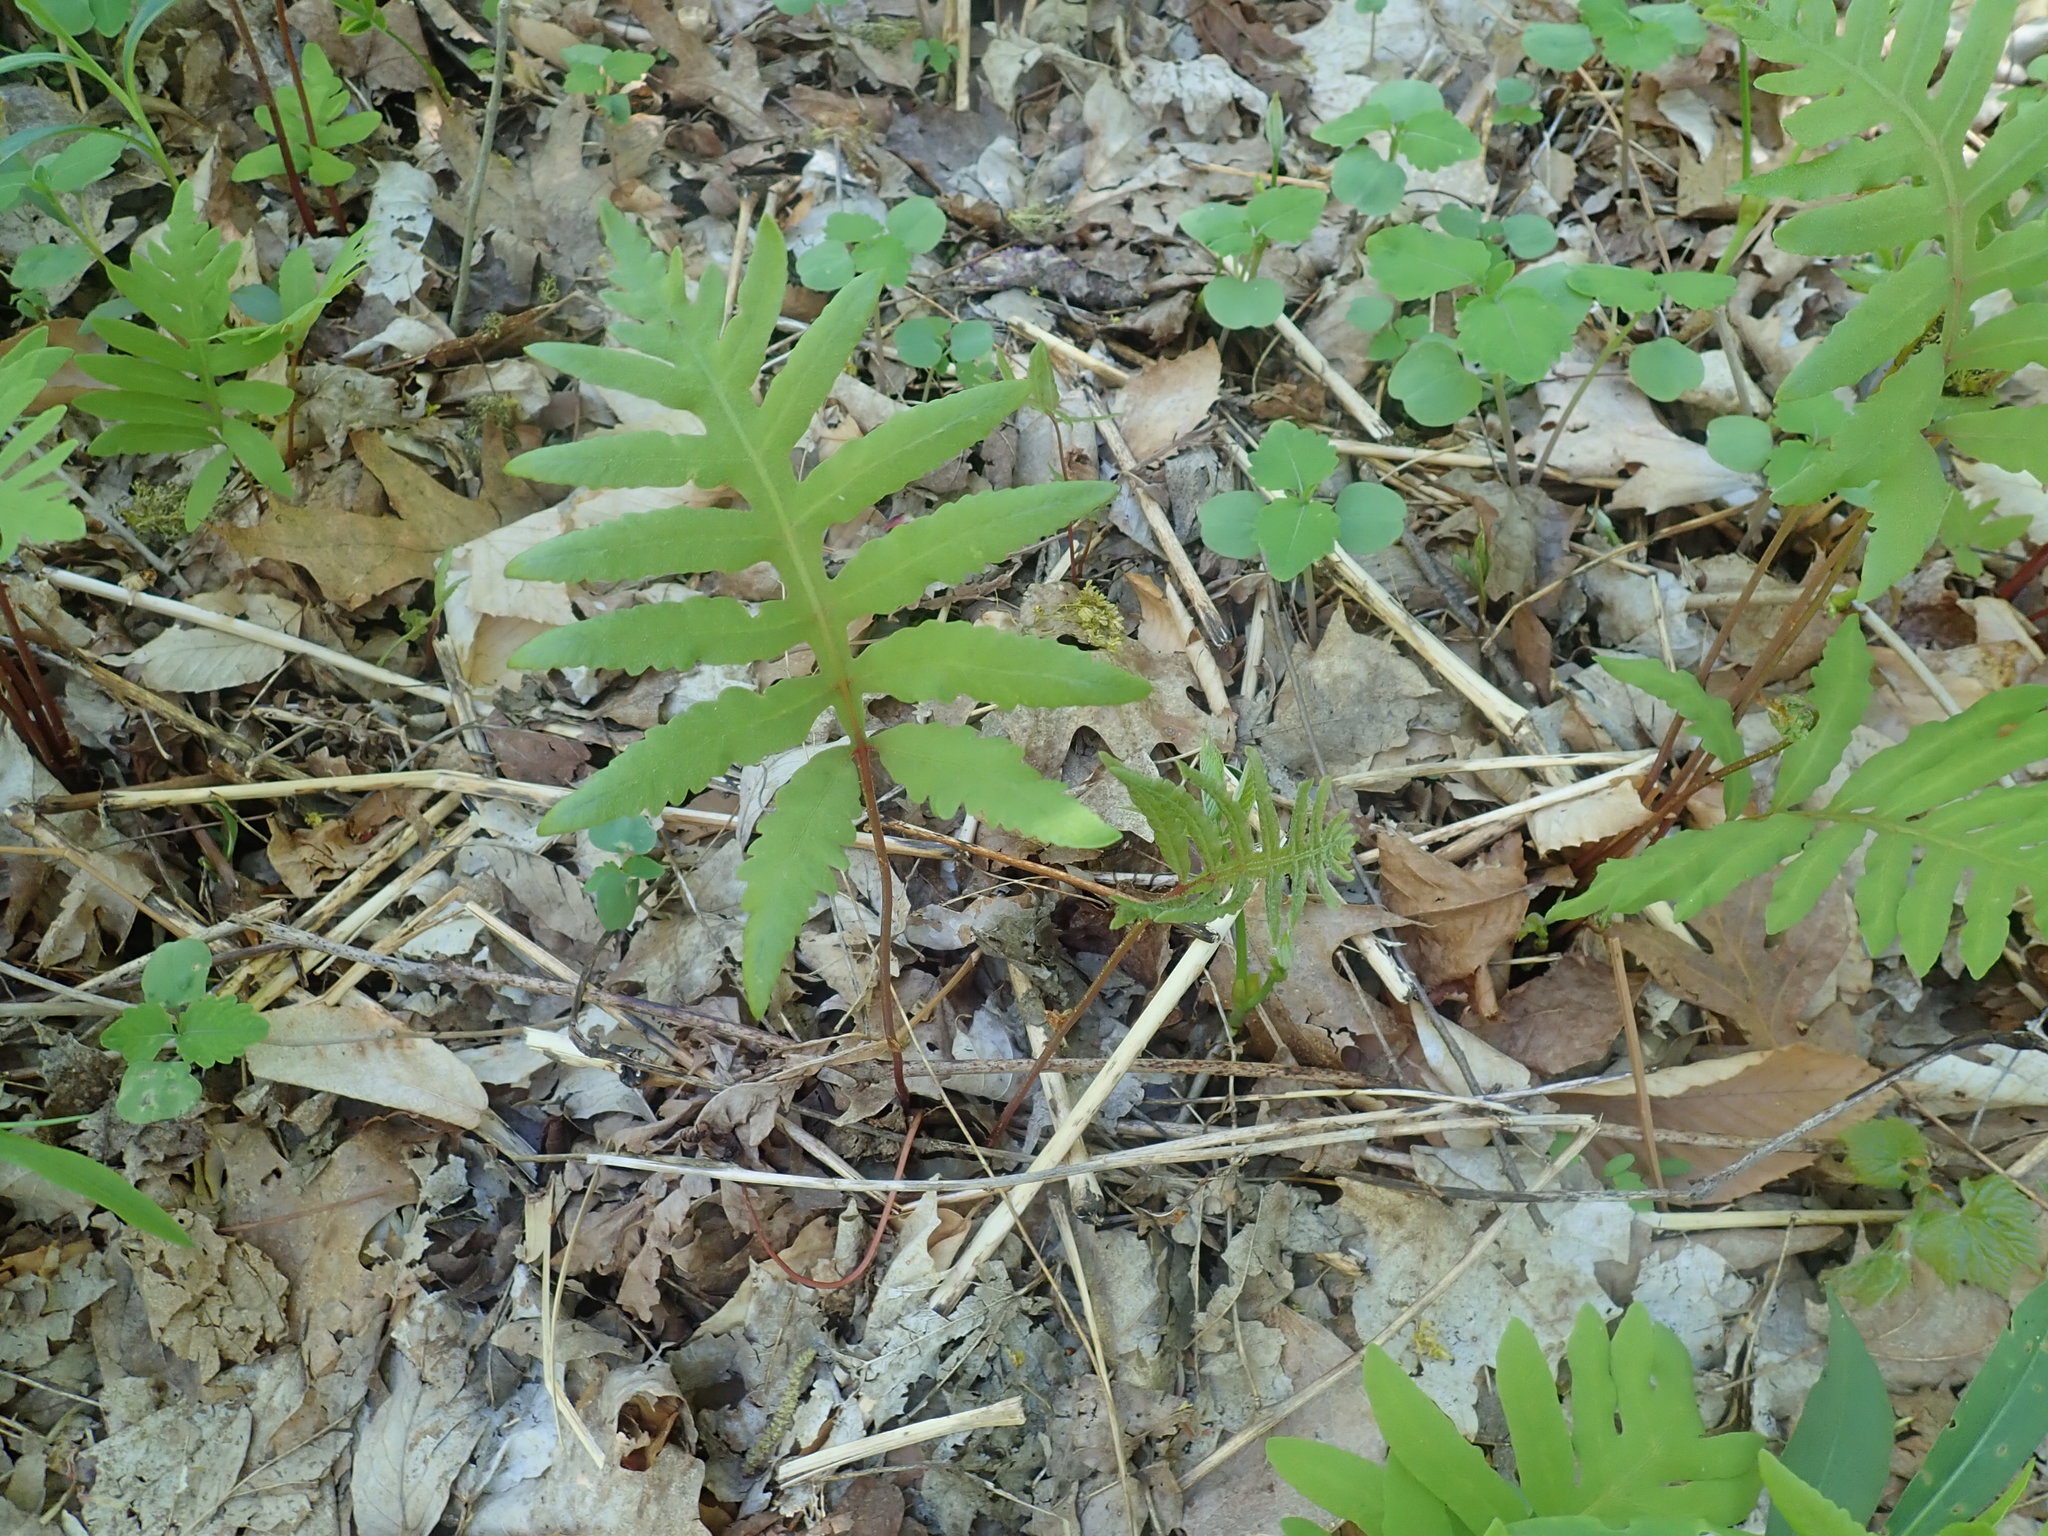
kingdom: Plantae
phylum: Tracheophyta
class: Polypodiopsida
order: Polypodiales
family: Onocleaceae
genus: Onoclea
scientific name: Onoclea sensibilis
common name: Sensitive fern
